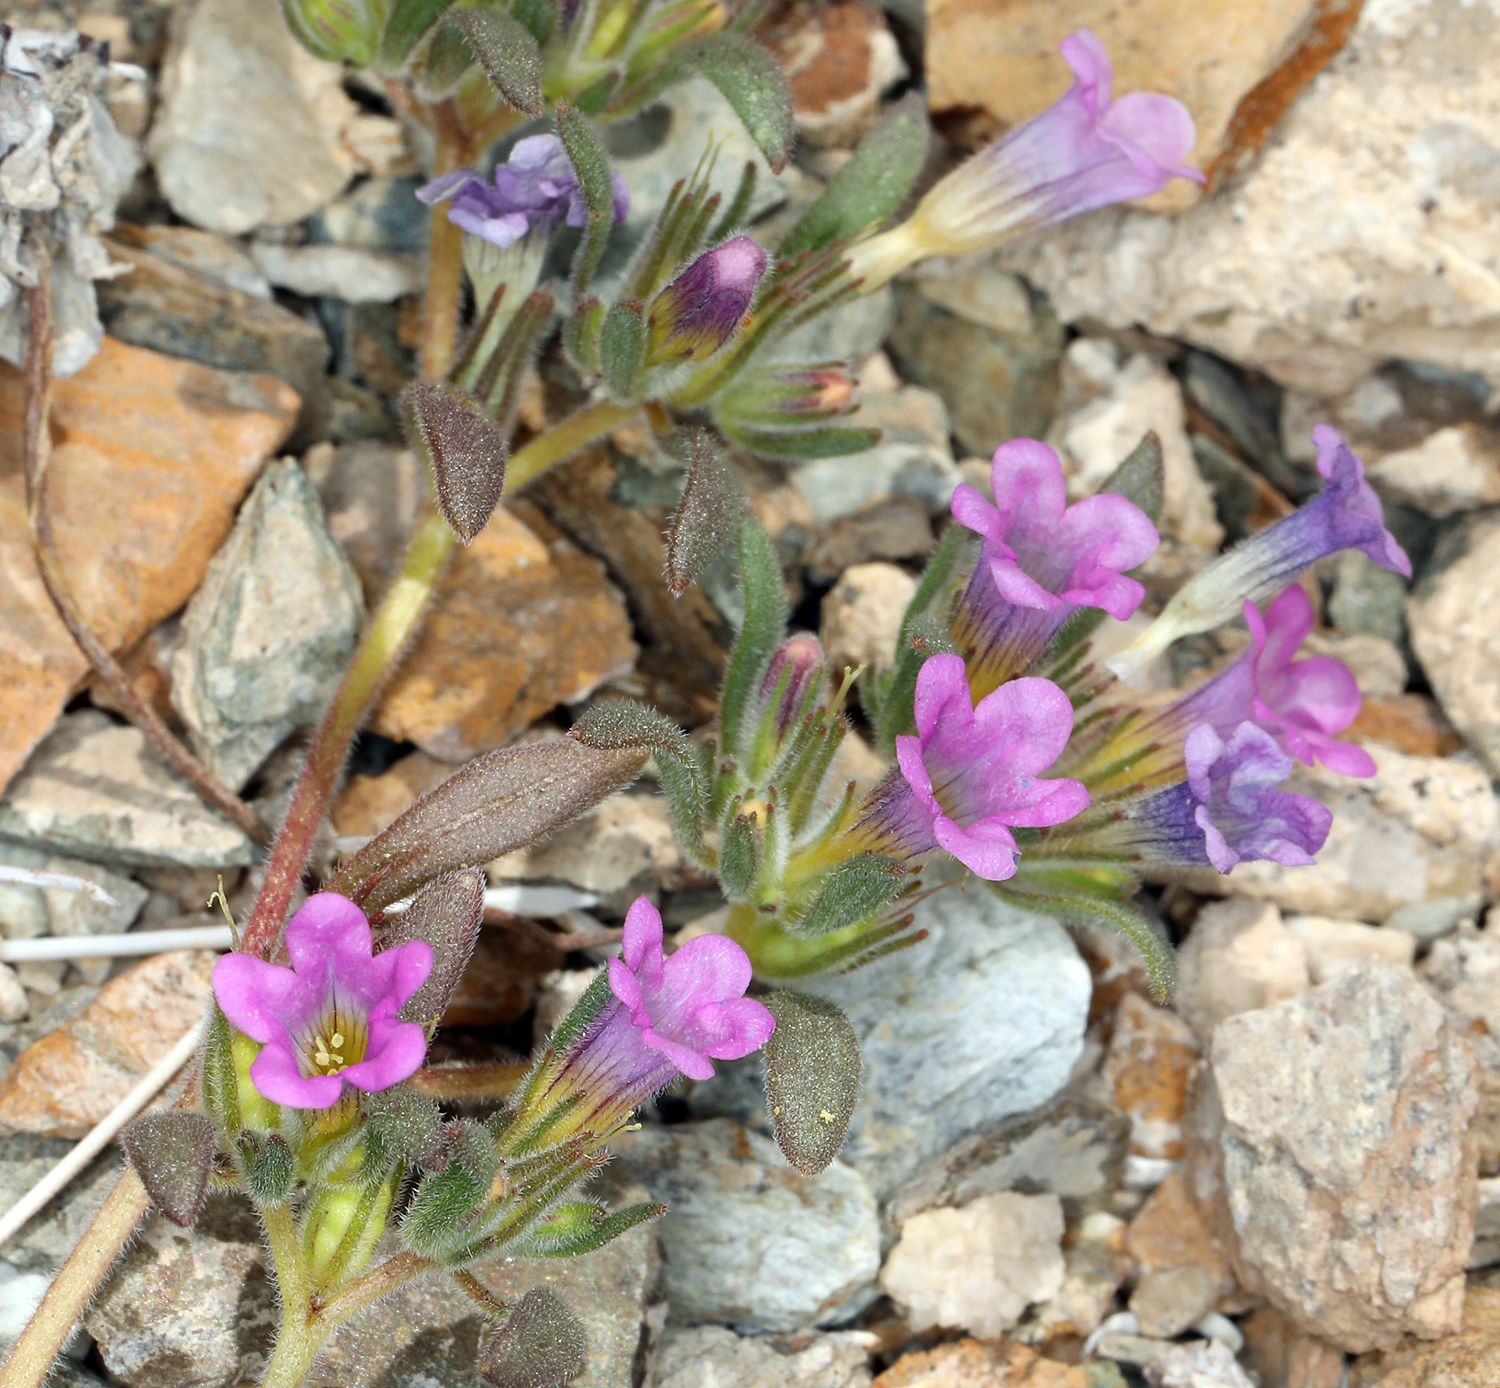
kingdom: Plantae
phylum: Tracheophyta
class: Magnoliopsida
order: Boraginales
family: Namaceae
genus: Nama
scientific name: Nama demissa
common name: Leafy nama
